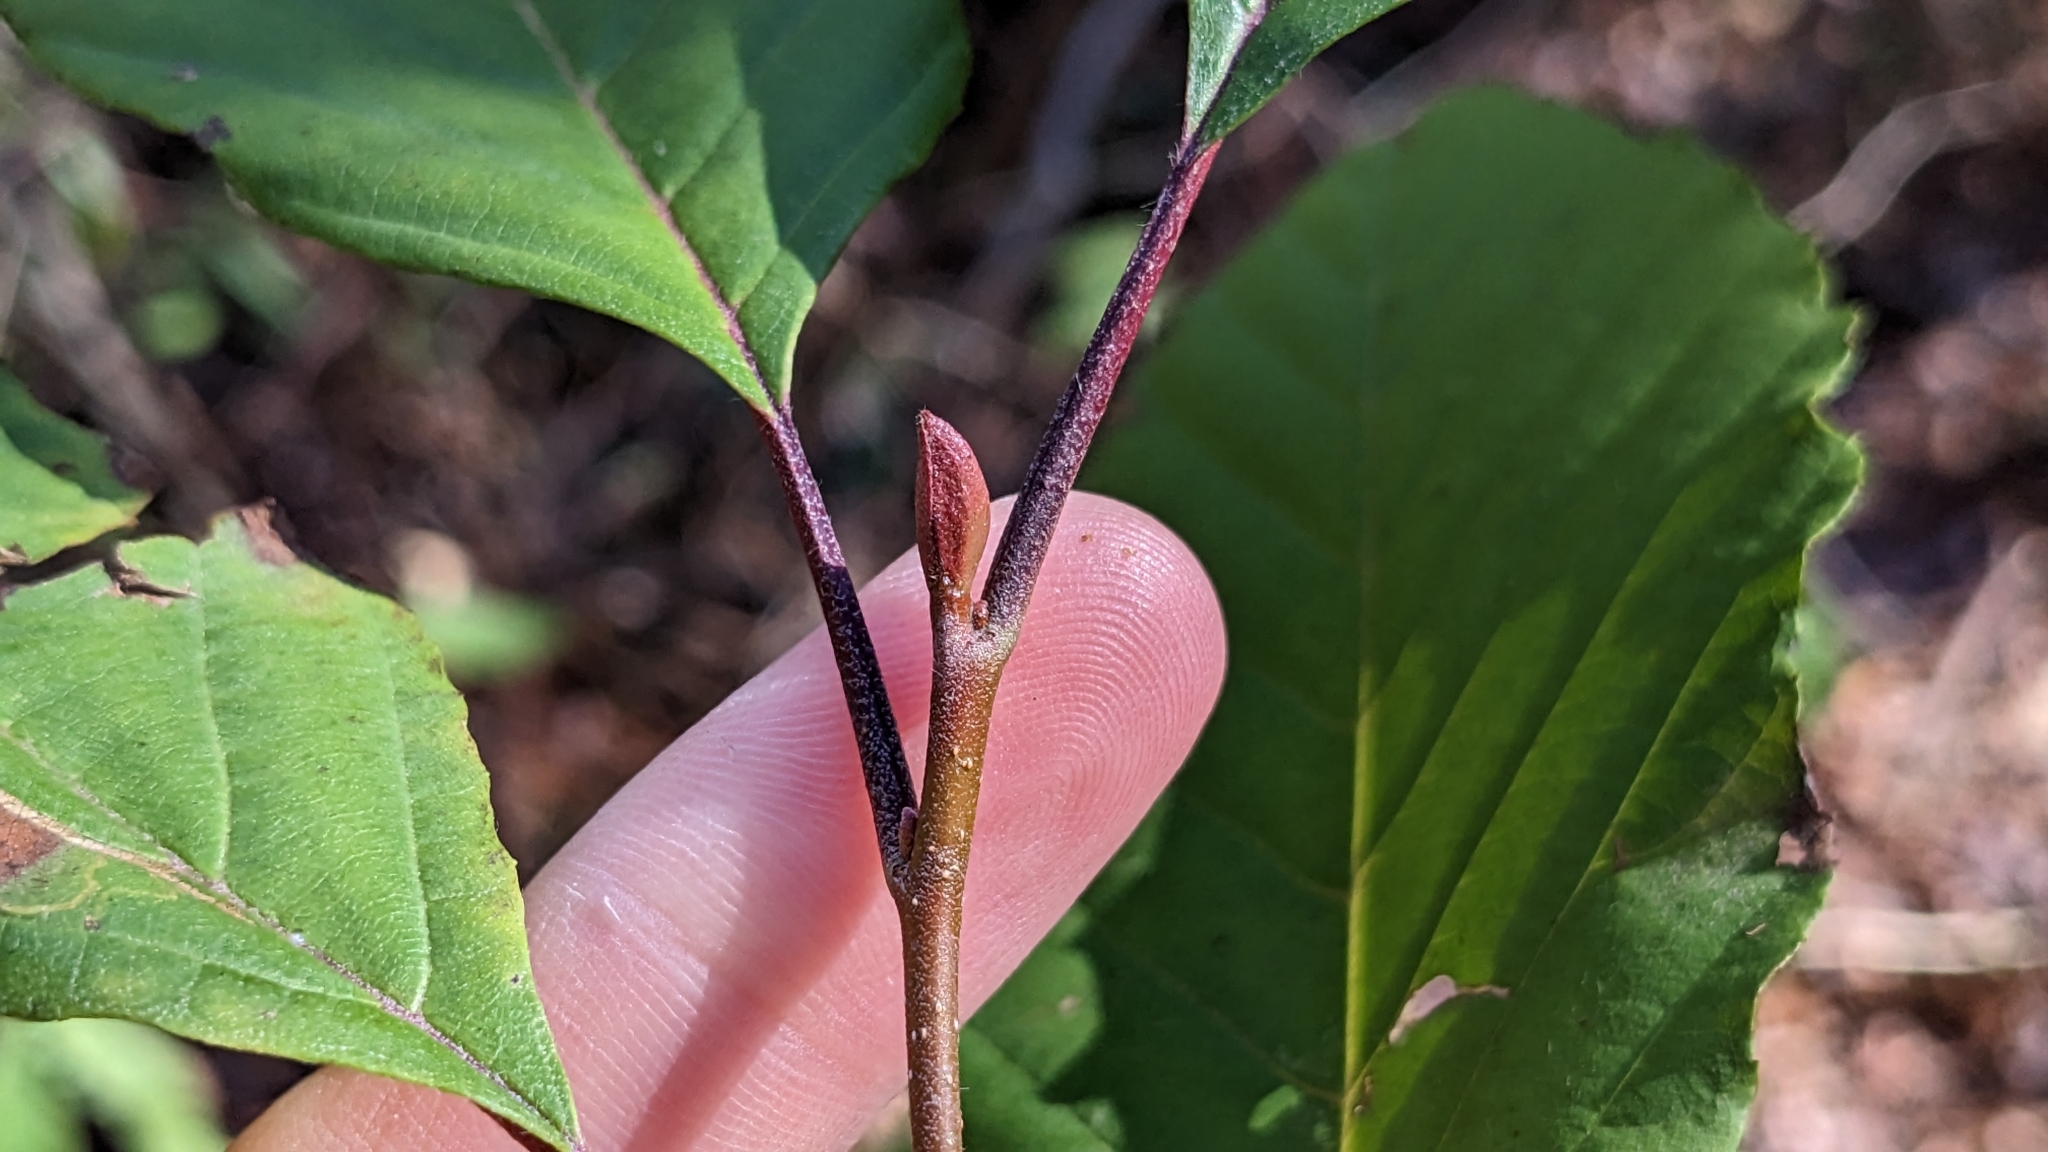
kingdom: Plantae
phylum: Tracheophyta
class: Magnoliopsida
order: Fagales
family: Betulaceae
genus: Alnus
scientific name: Alnus serrulata
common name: Hazel alder
